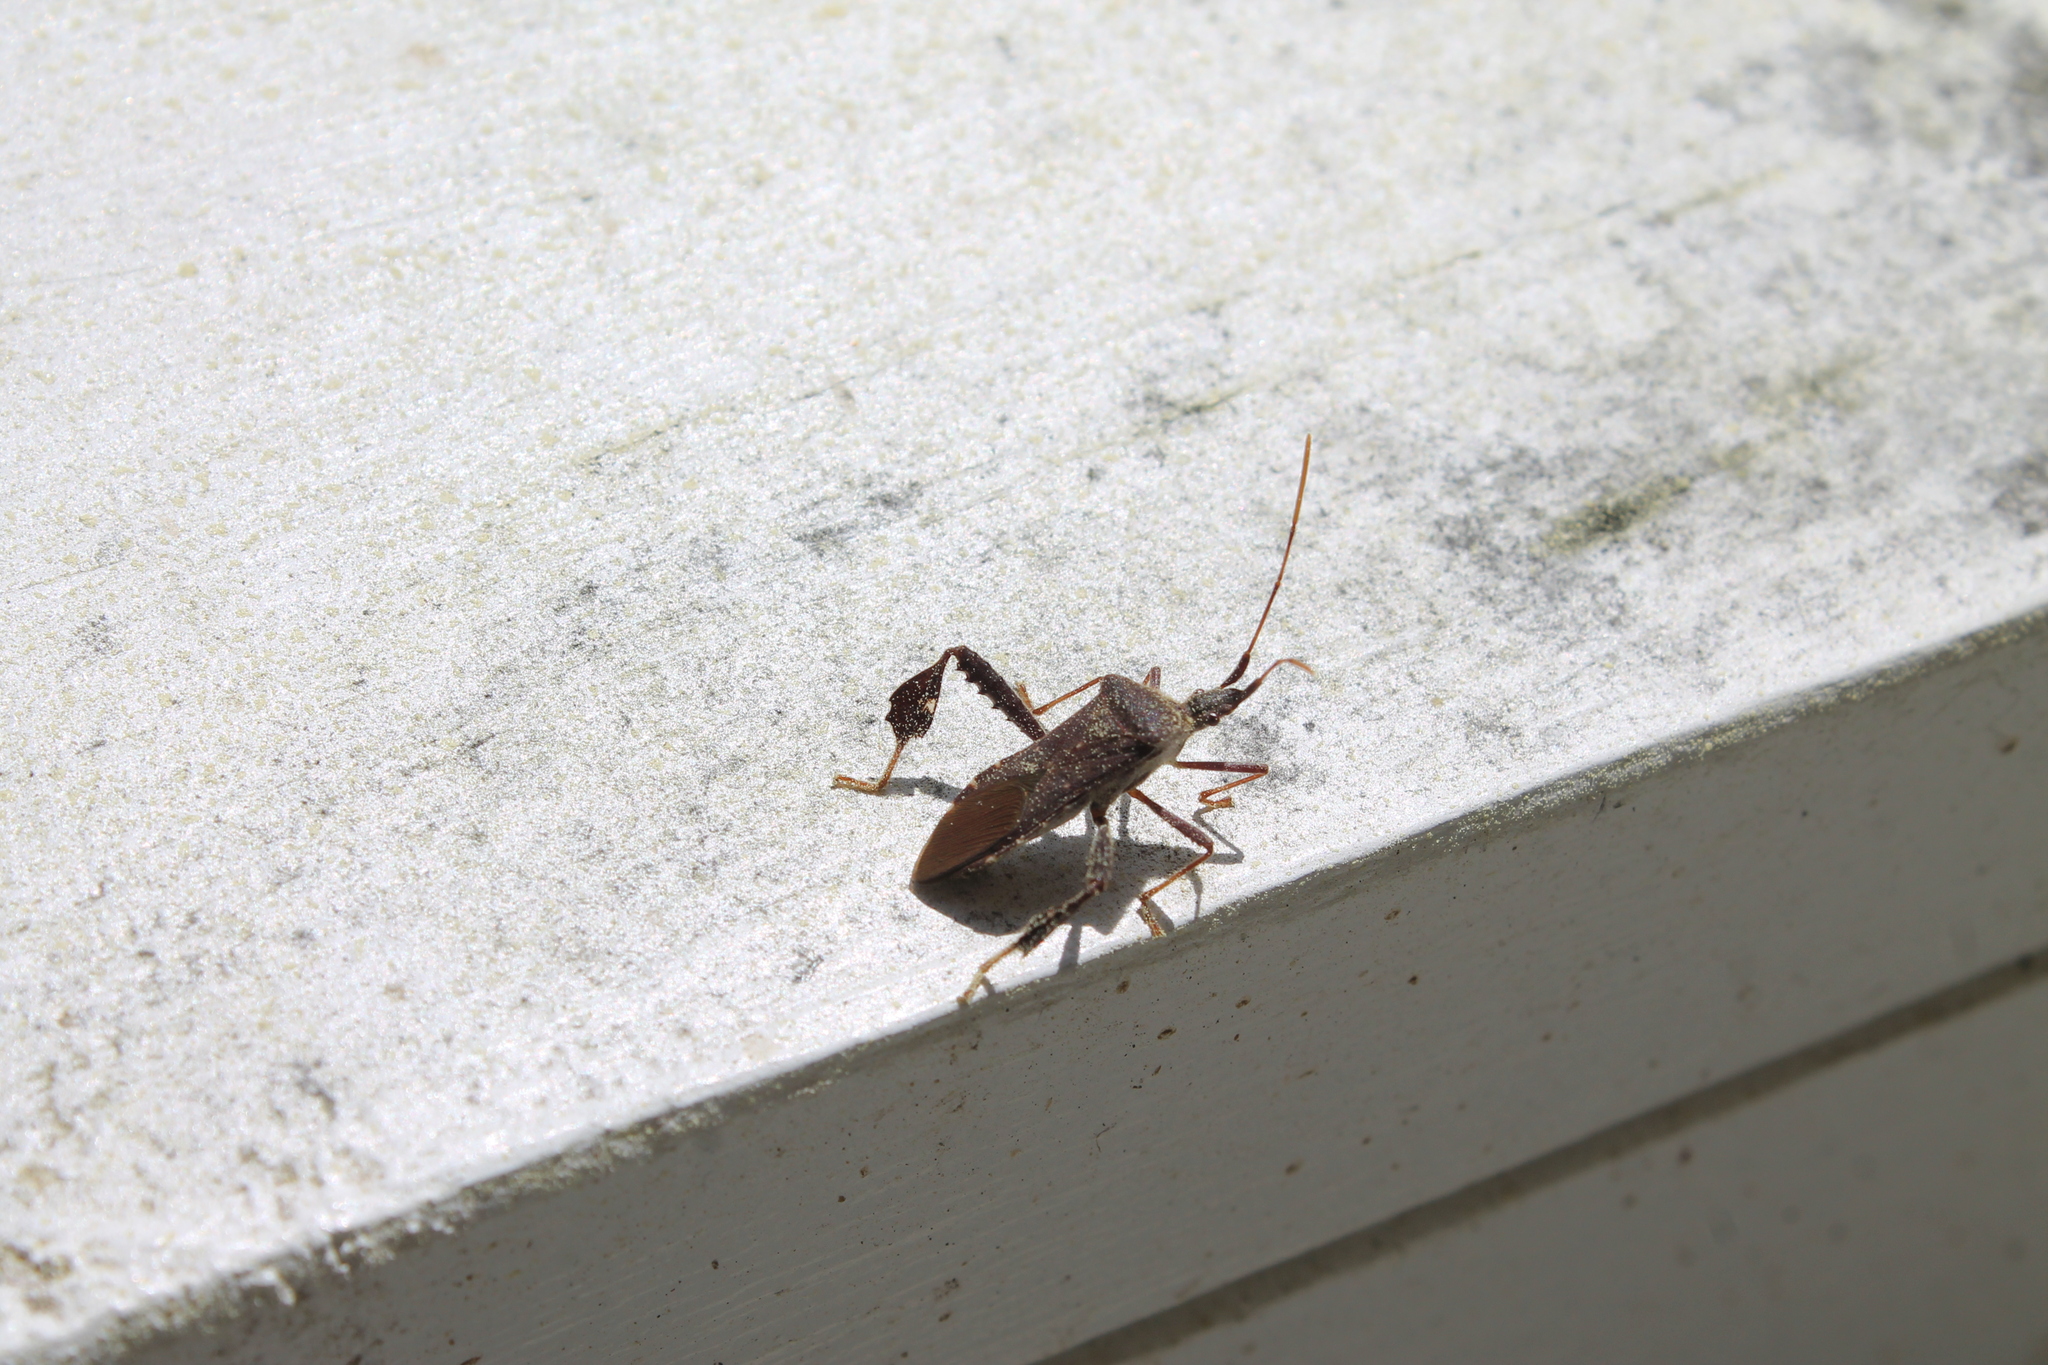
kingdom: Animalia
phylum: Arthropoda
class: Insecta
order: Hemiptera
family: Coreidae
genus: Leptoglossus
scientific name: Leptoglossus oppositus
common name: Northern leaf-footed bug
